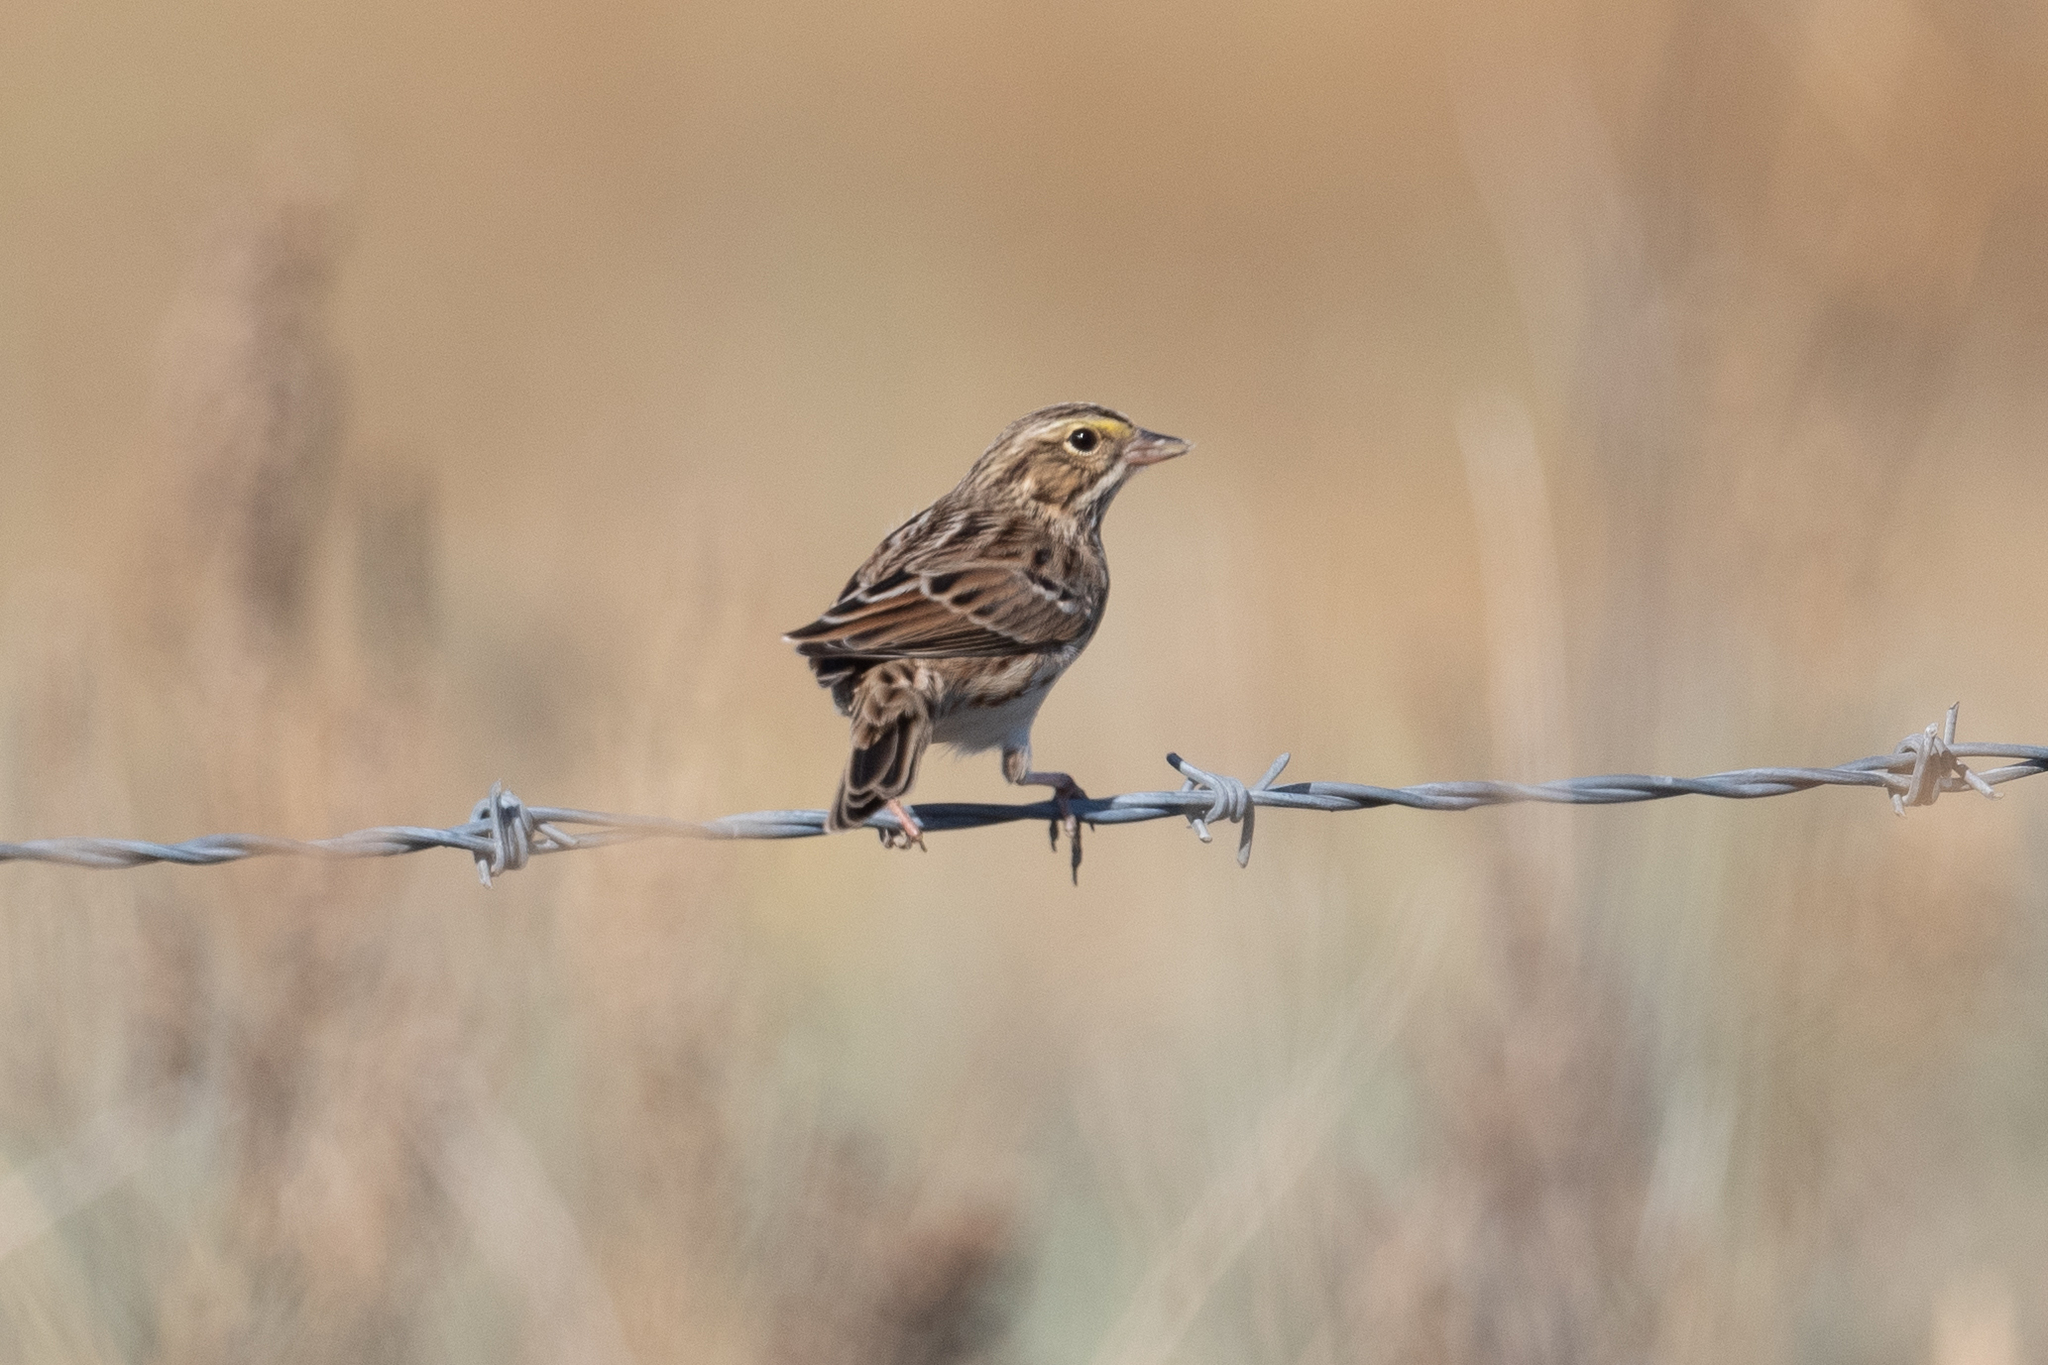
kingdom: Animalia
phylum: Chordata
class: Aves
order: Passeriformes
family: Passerellidae
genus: Passerculus
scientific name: Passerculus sandwichensis
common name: Savannah sparrow
